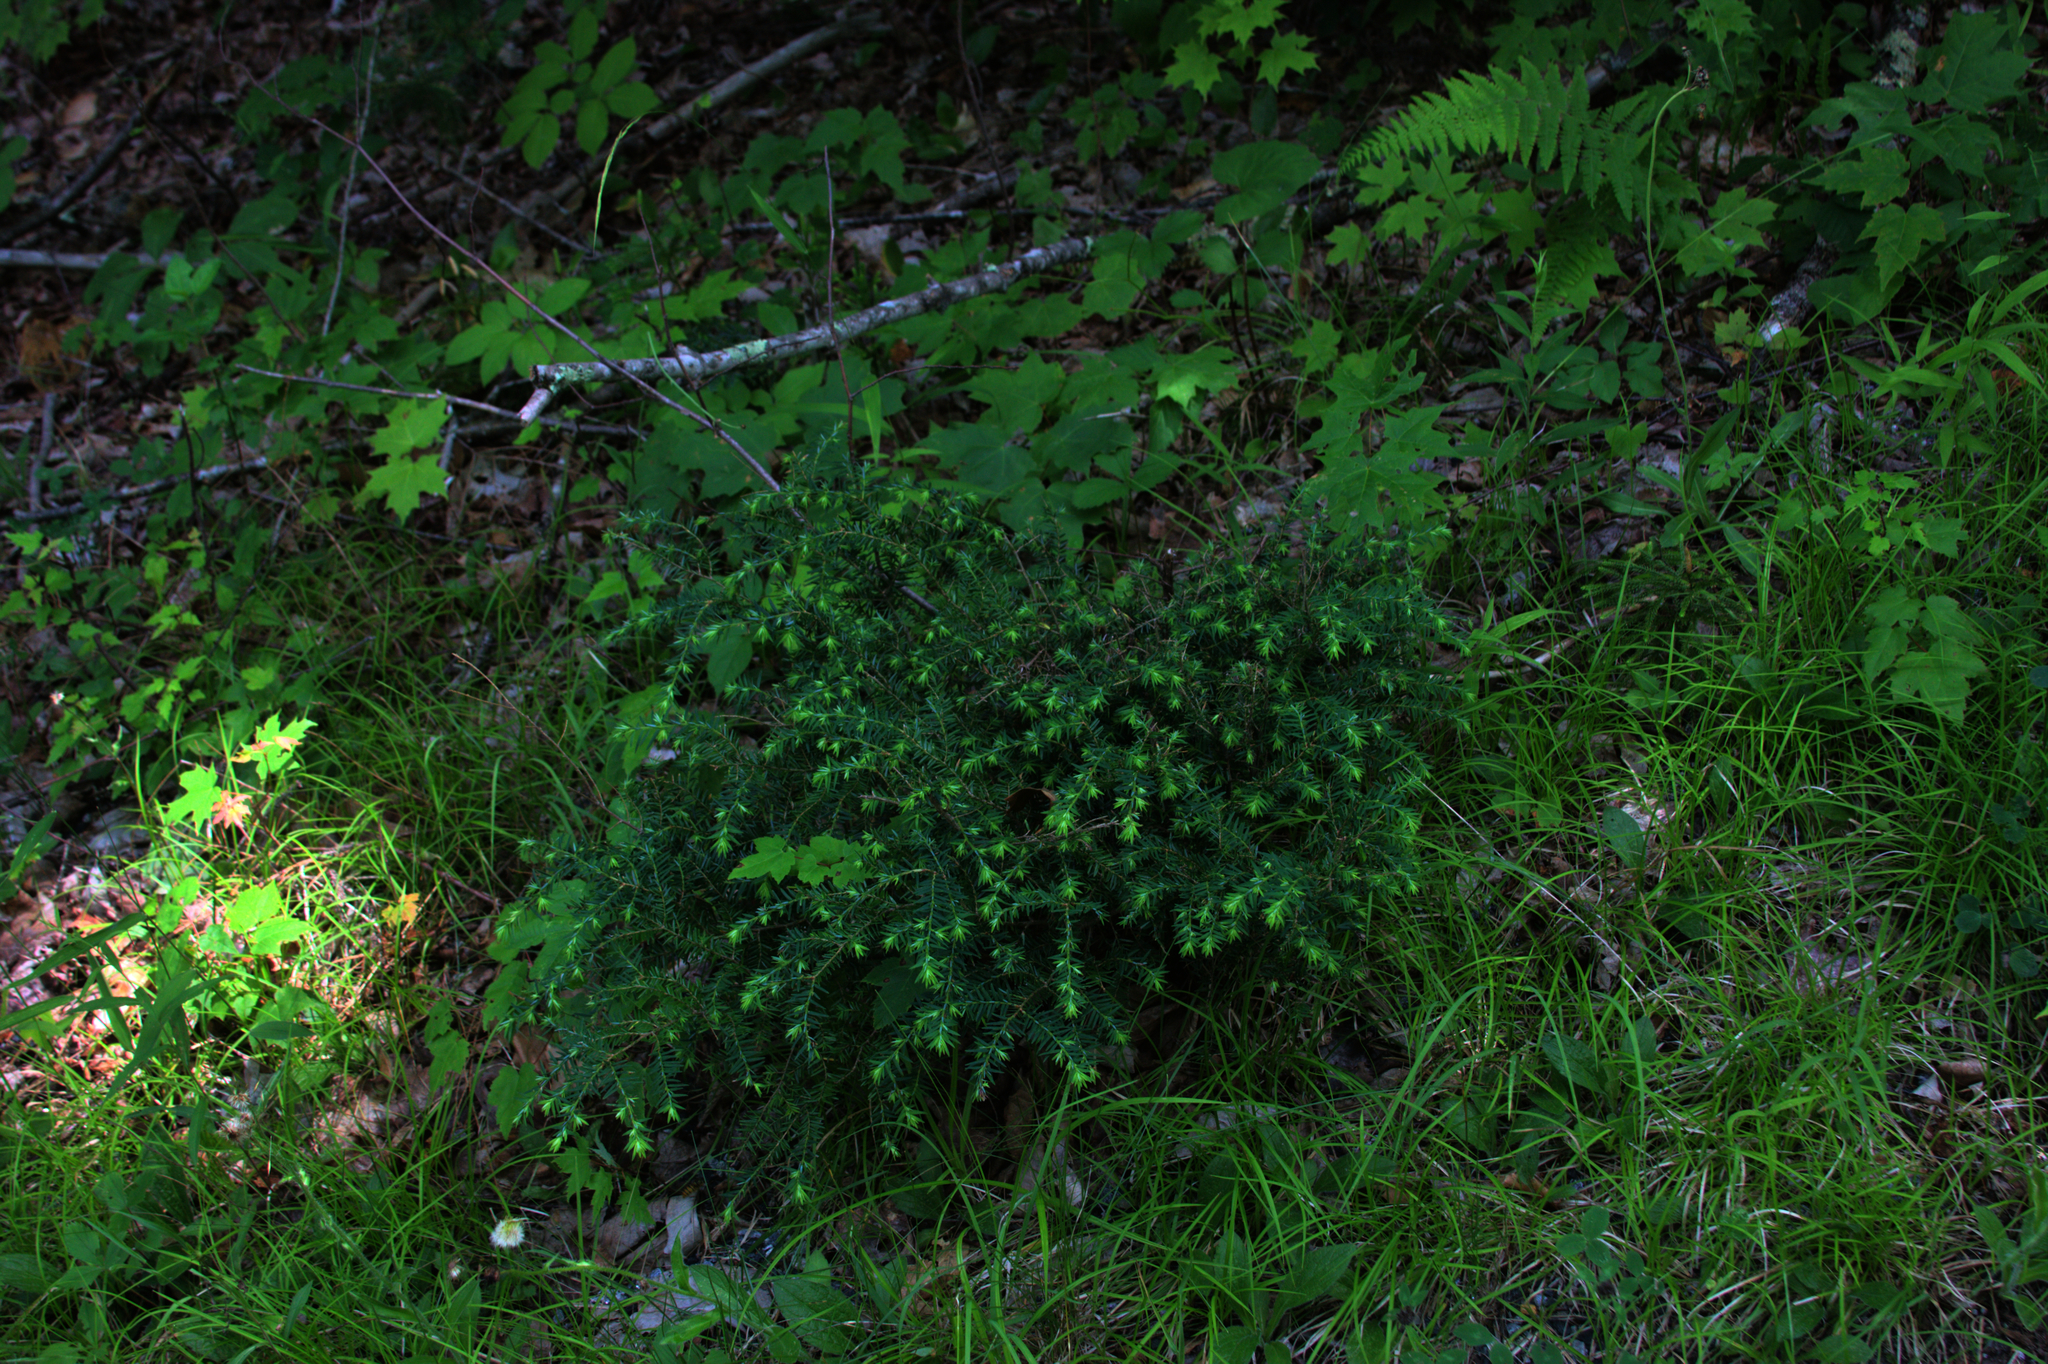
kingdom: Plantae
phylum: Tracheophyta
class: Pinopsida
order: Pinales
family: Pinaceae
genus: Tsuga
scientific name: Tsuga canadensis
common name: Eastern hemlock
